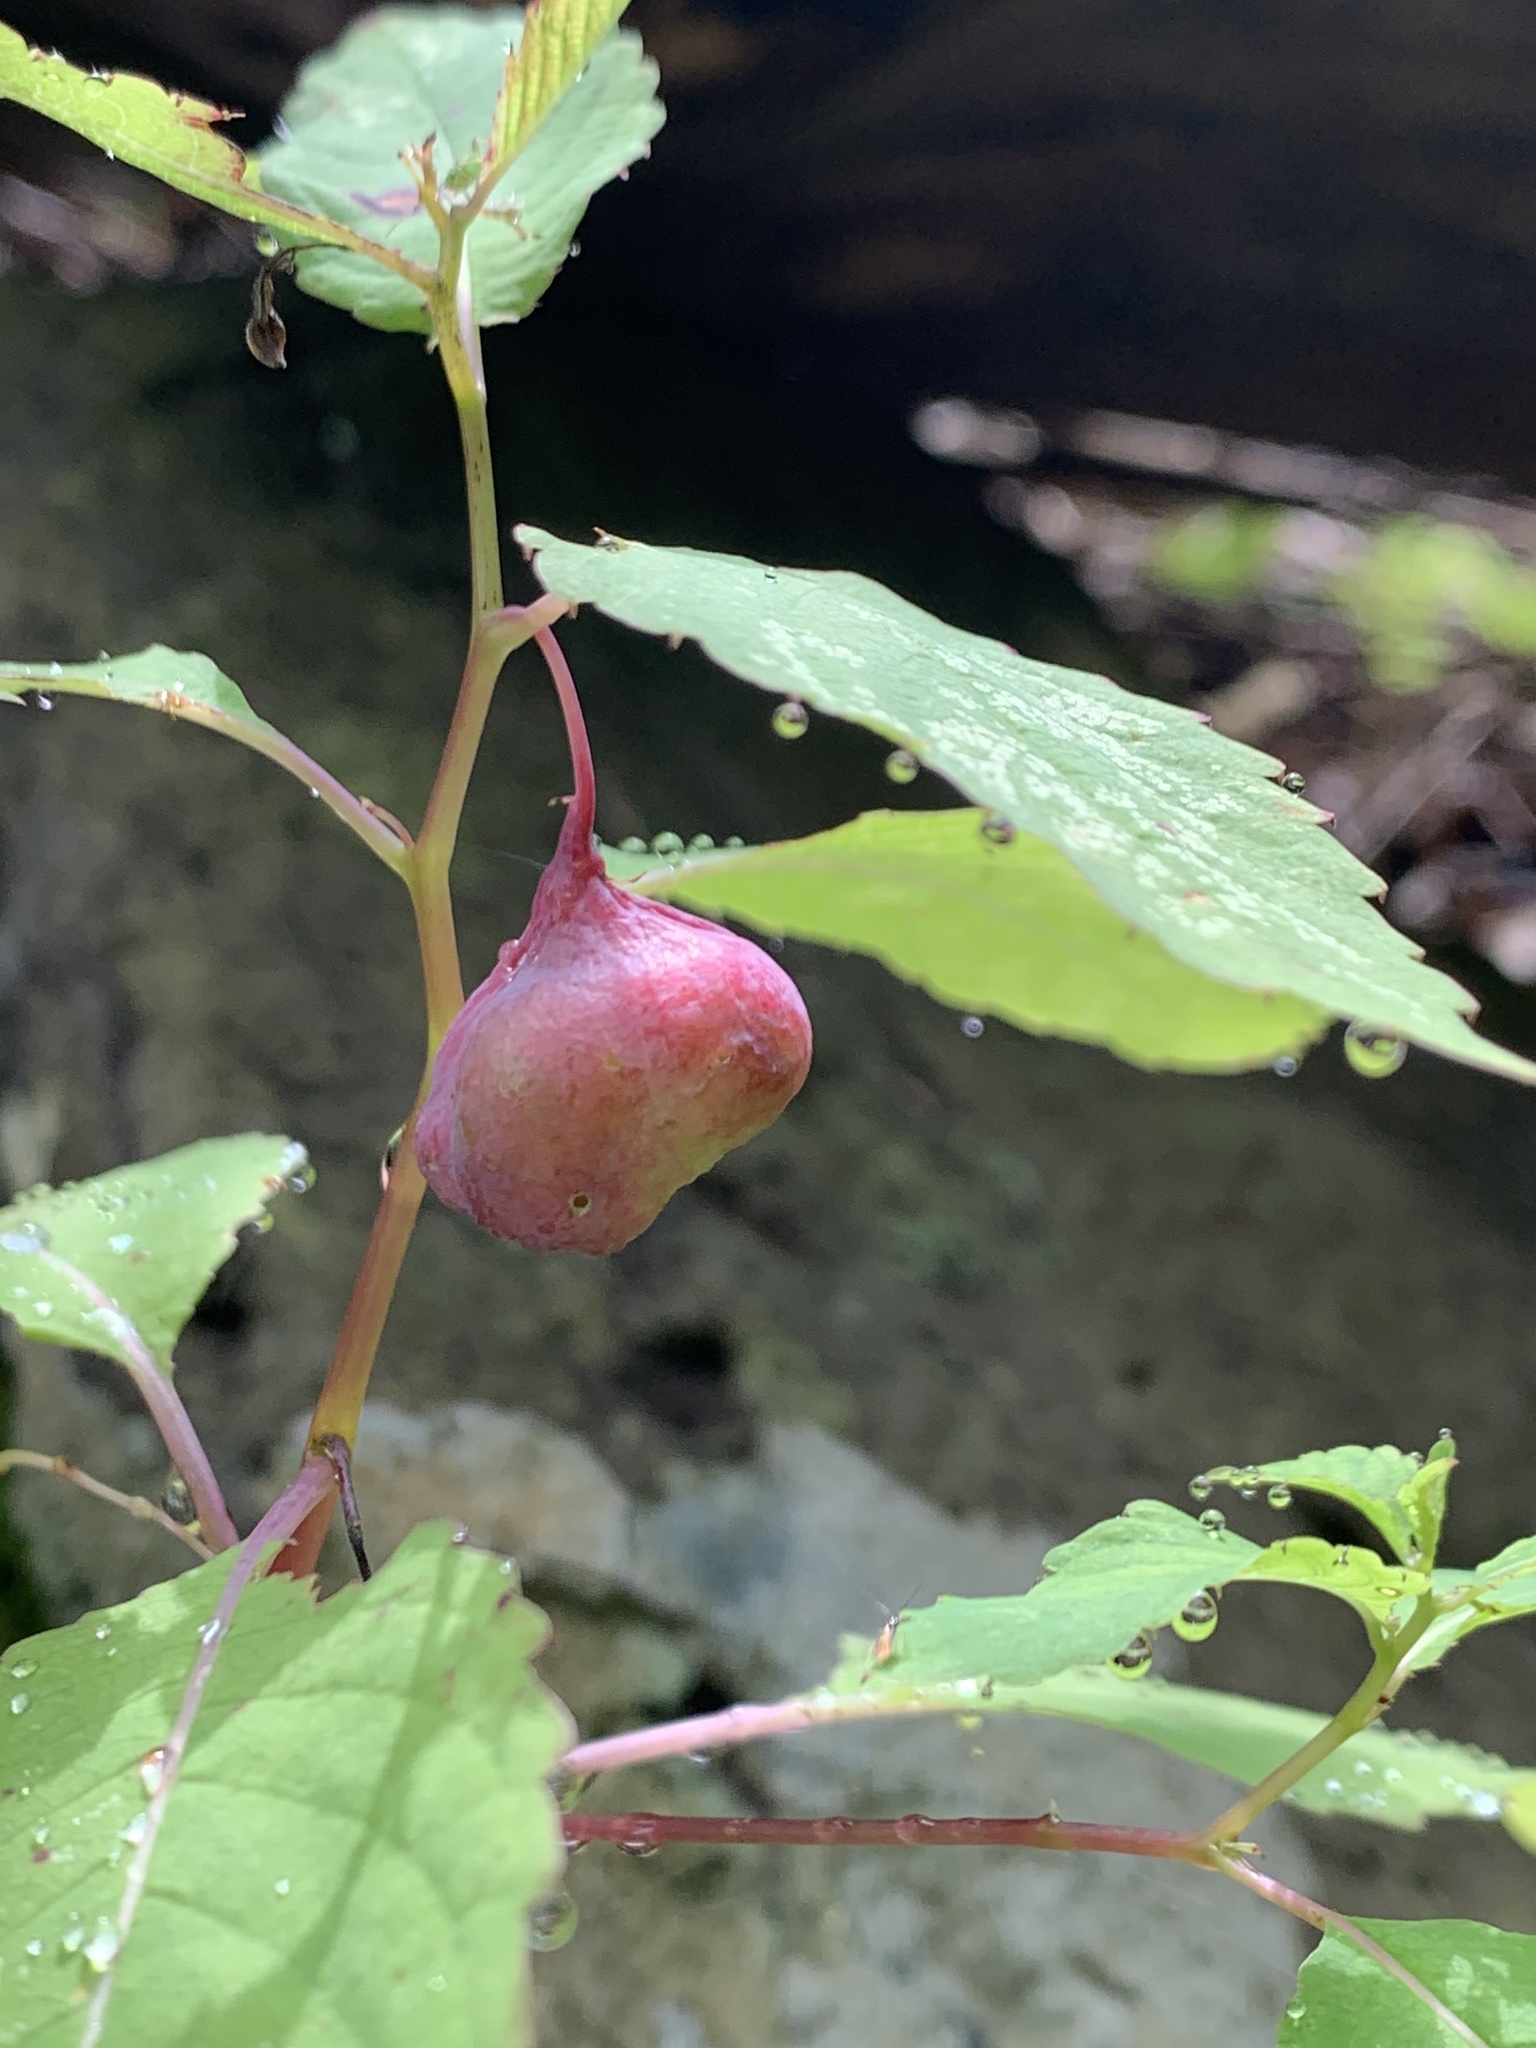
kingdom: Animalia
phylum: Arthropoda
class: Insecta
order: Diptera
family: Cecidomyiidae
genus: Schizomyia
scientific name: Schizomyia impatientis
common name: Jewelweed gall midge
